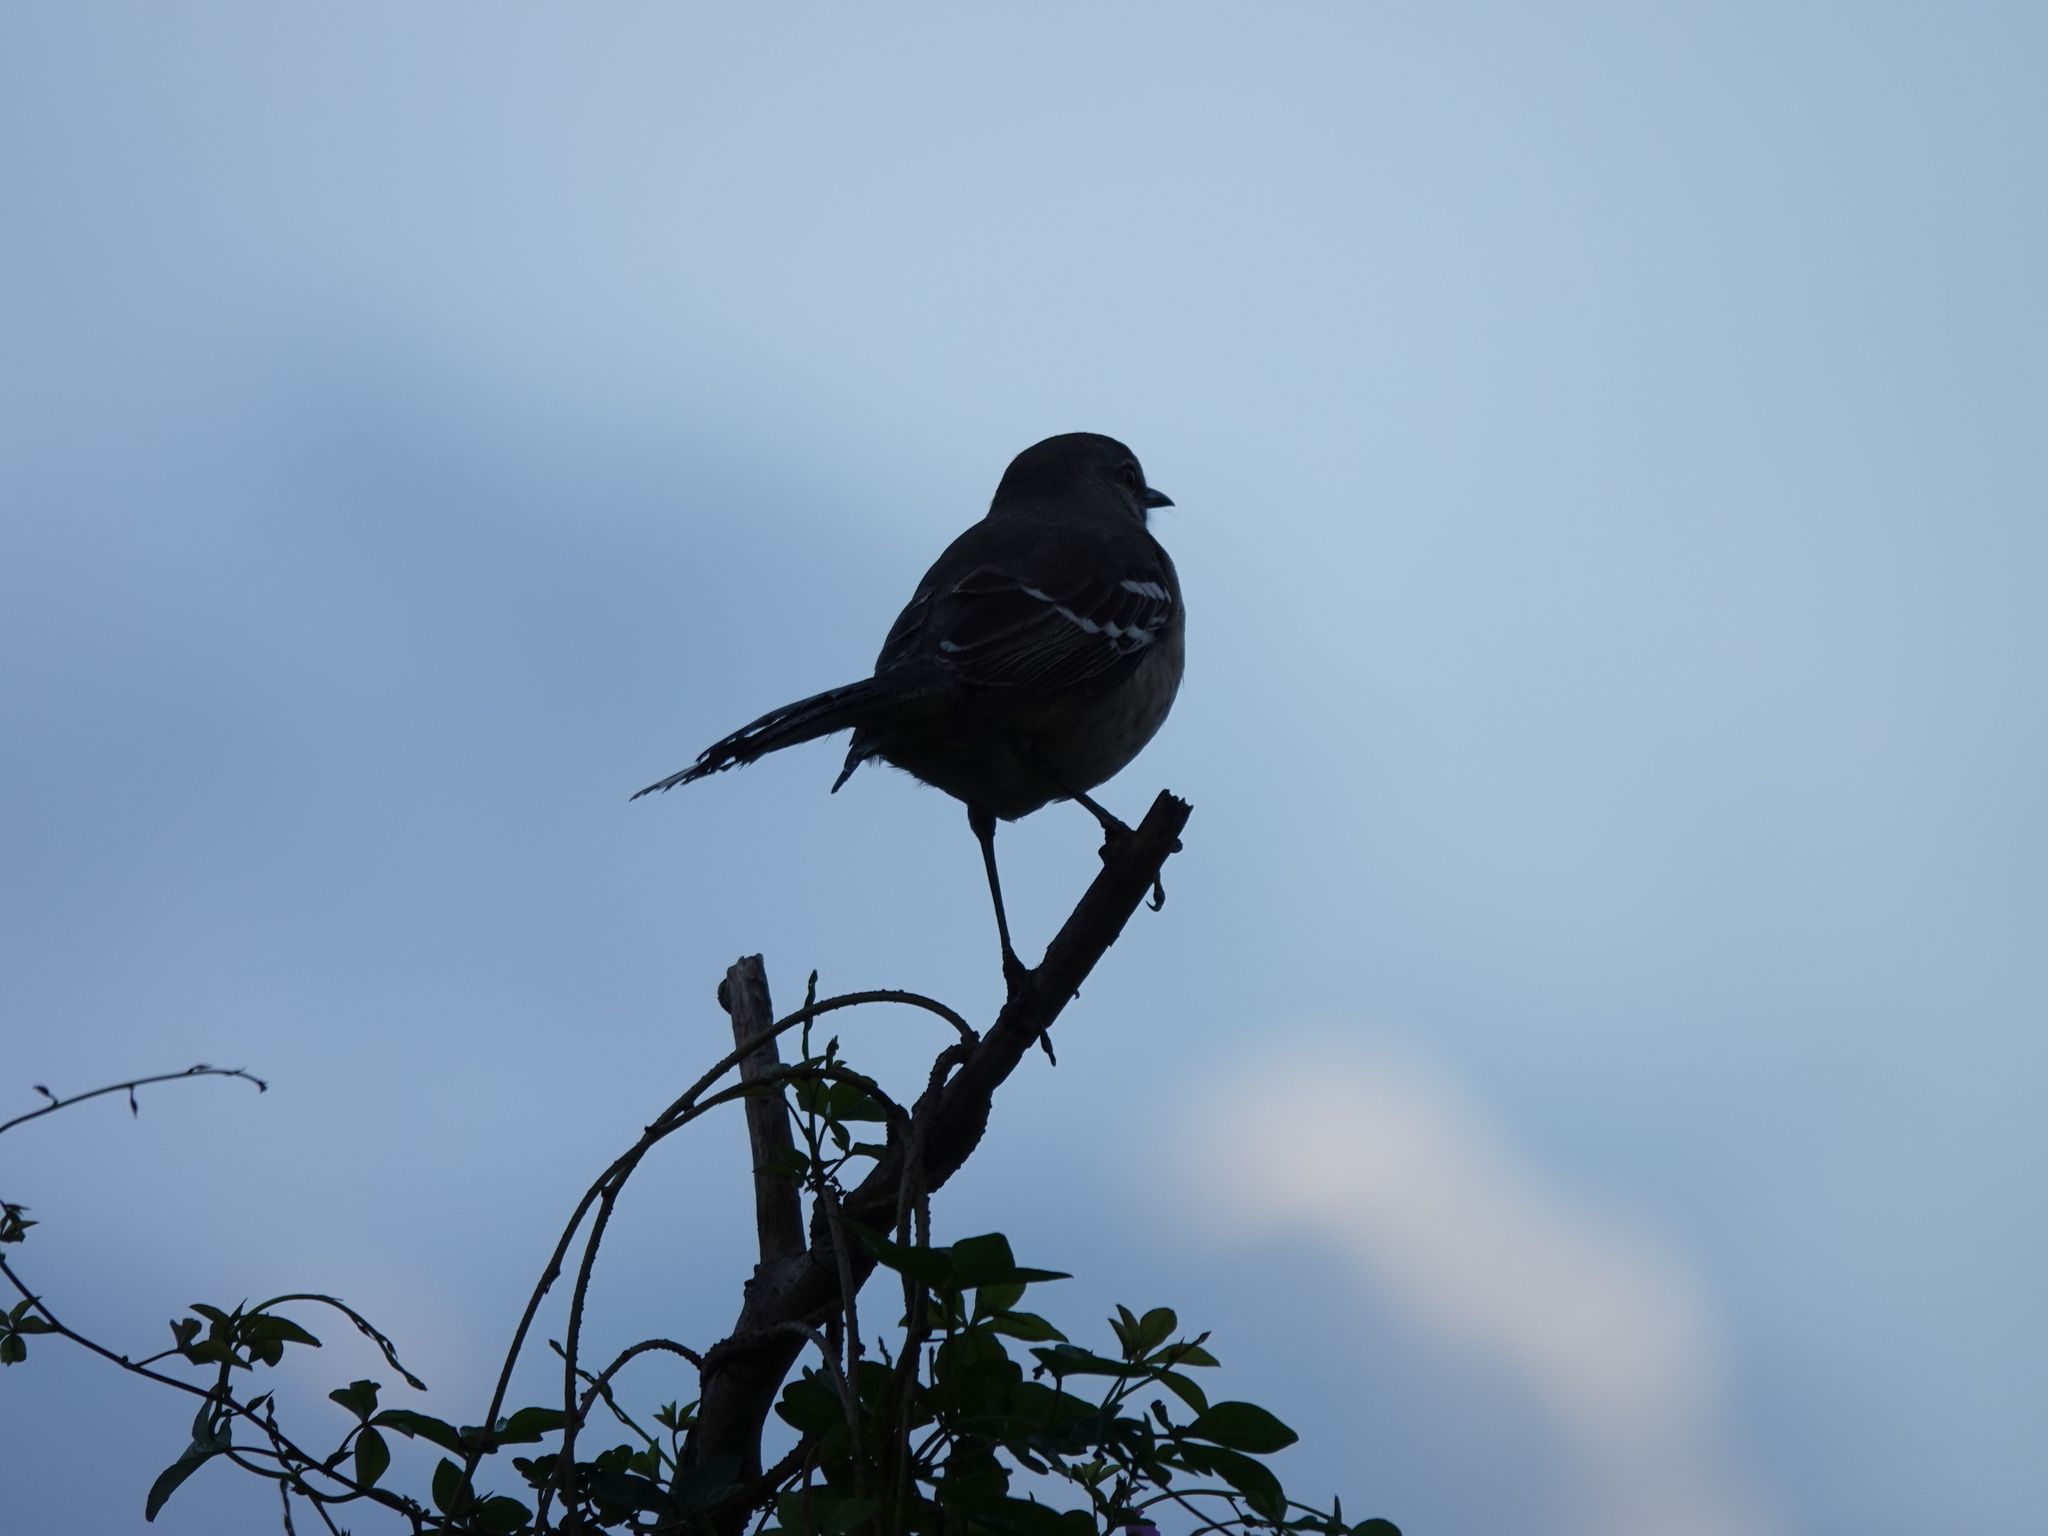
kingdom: Animalia
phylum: Chordata
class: Aves
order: Passeriformes
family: Mimidae
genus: Mimus
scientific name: Mimus polyglottos
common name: Northern mockingbird
